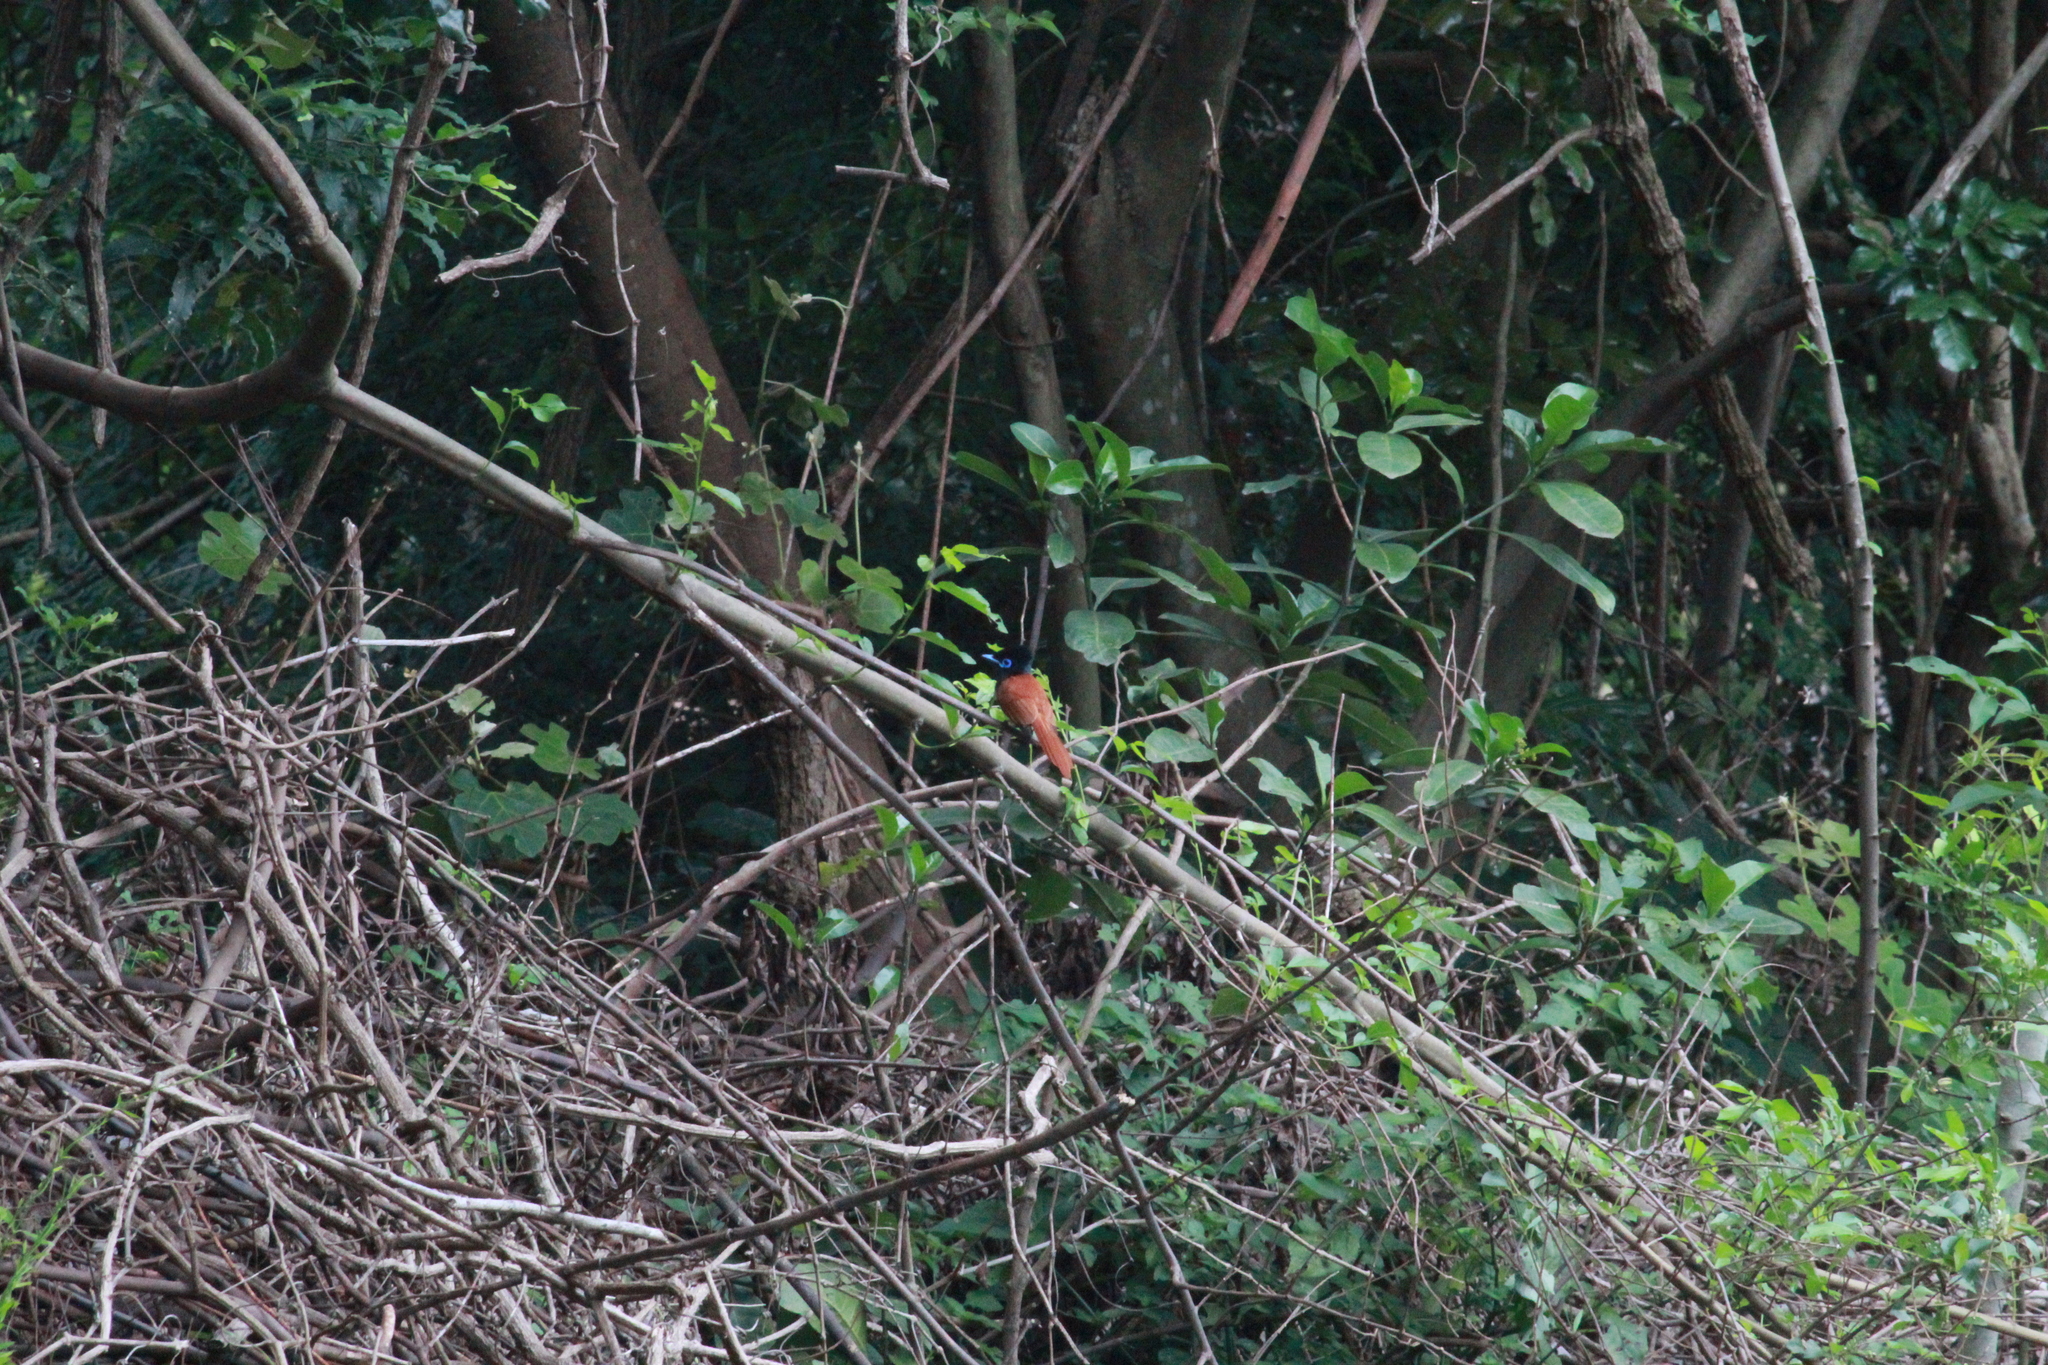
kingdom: Animalia
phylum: Chordata
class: Aves
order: Passeriformes
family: Monarchidae
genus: Terpsiphone
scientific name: Terpsiphone viridis
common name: African paradise flycatcher
